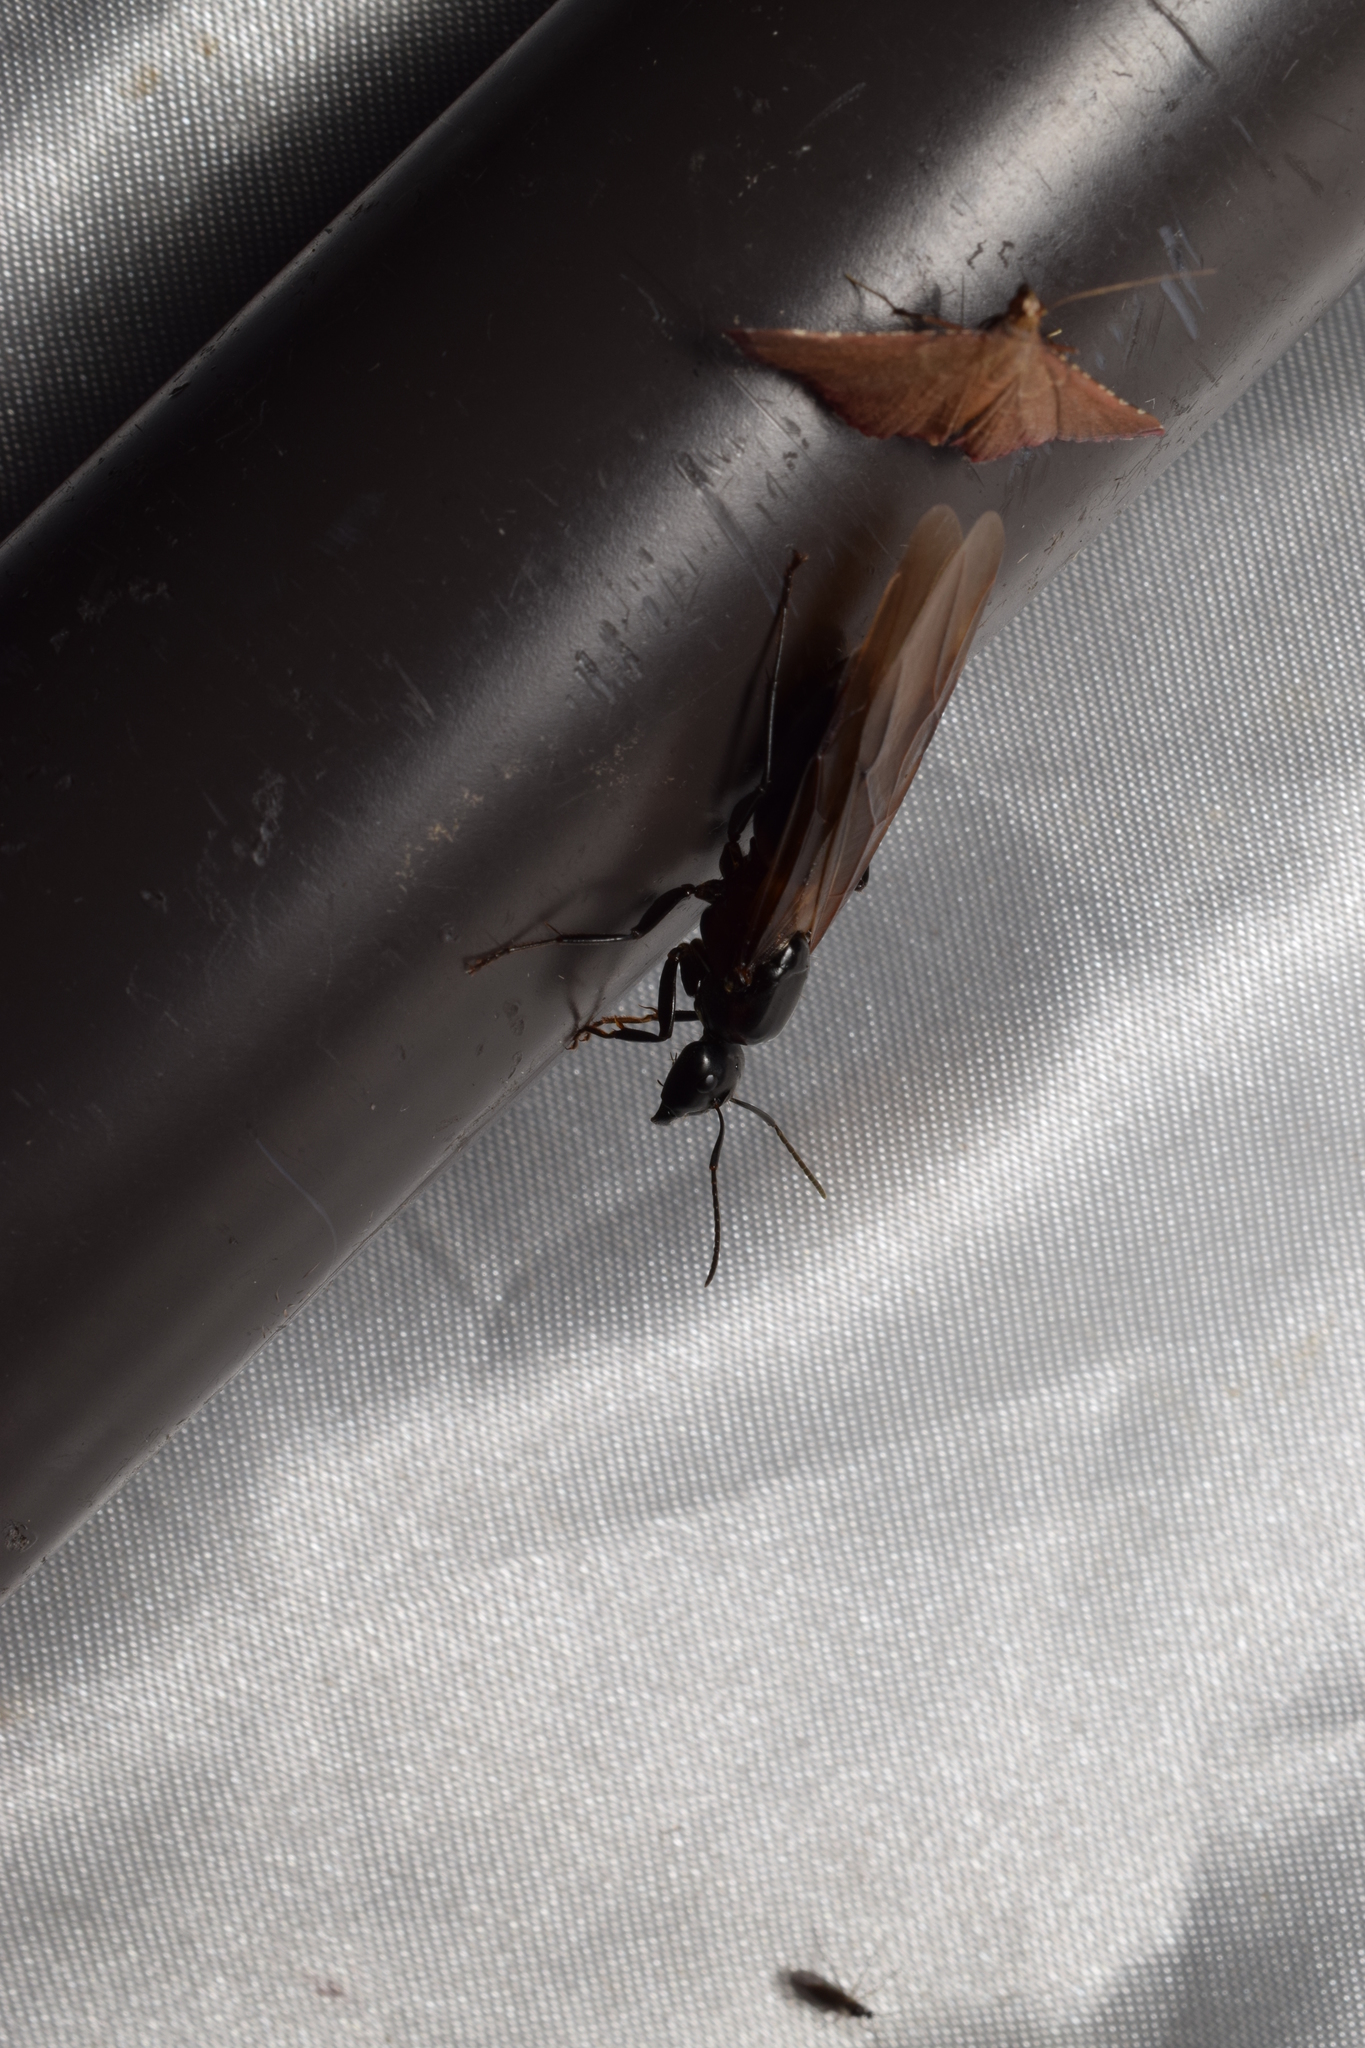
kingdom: Animalia
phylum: Arthropoda
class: Insecta
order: Hymenoptera
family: Formicidae
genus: Camponotus
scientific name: Camponotus japonicus
